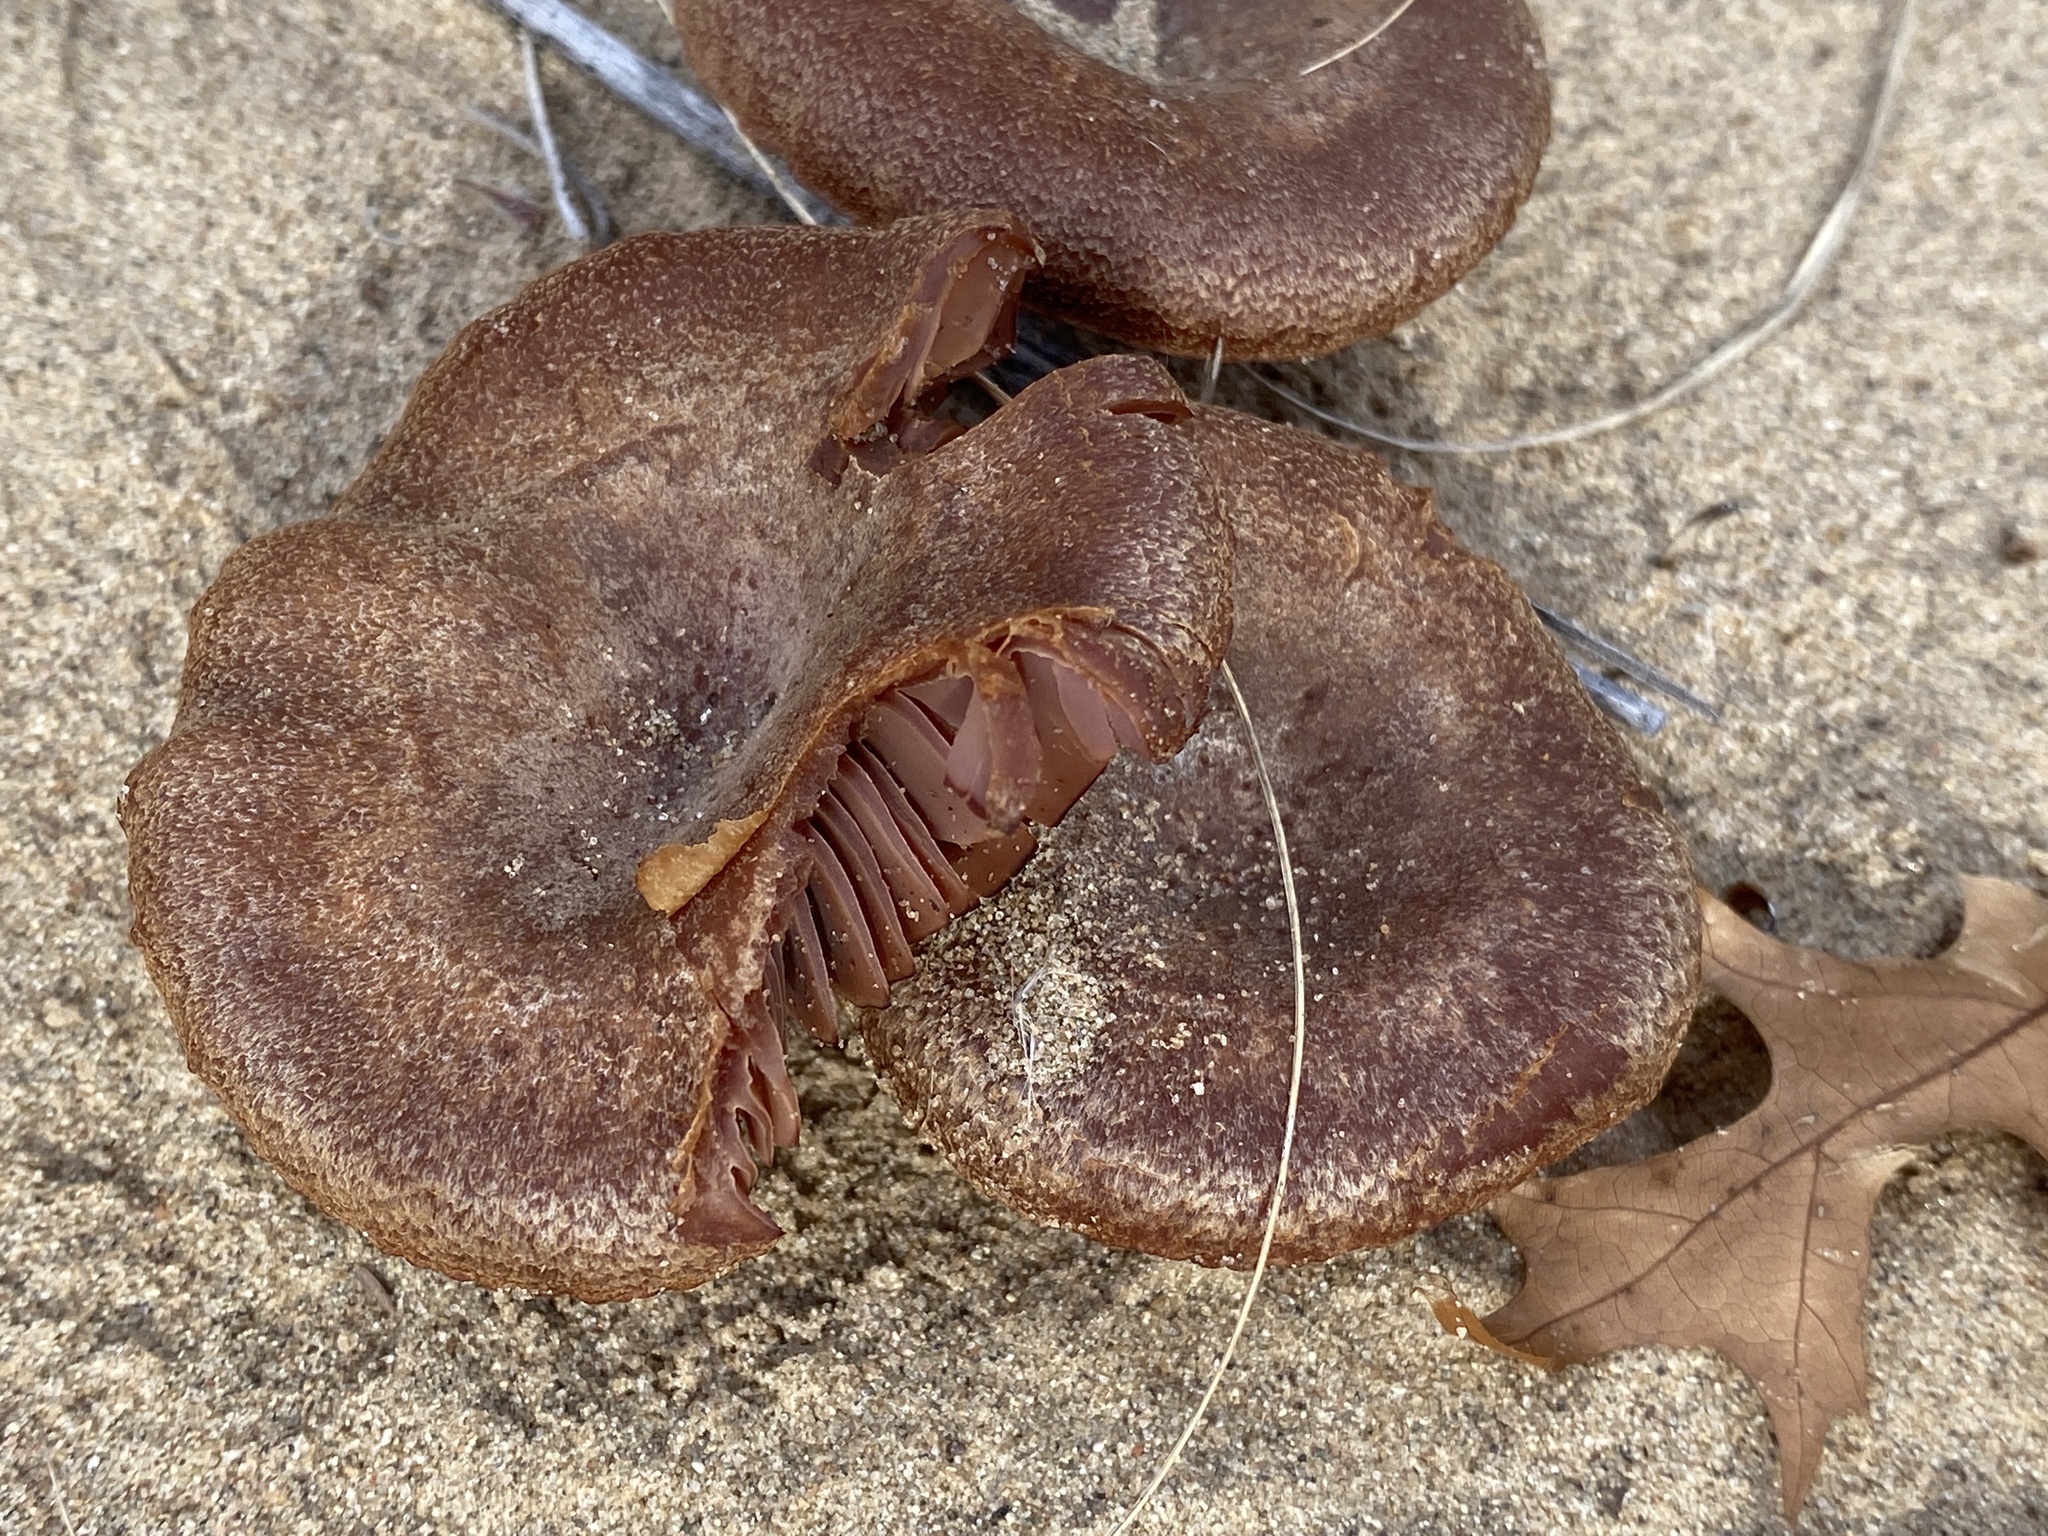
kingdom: Fungi
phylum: Basidiomycota
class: Agaricomycetes
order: Agaricales
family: Hydnangiaceae
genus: Laccaria
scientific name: Laccaria trullissata
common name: Sandy laccaria
